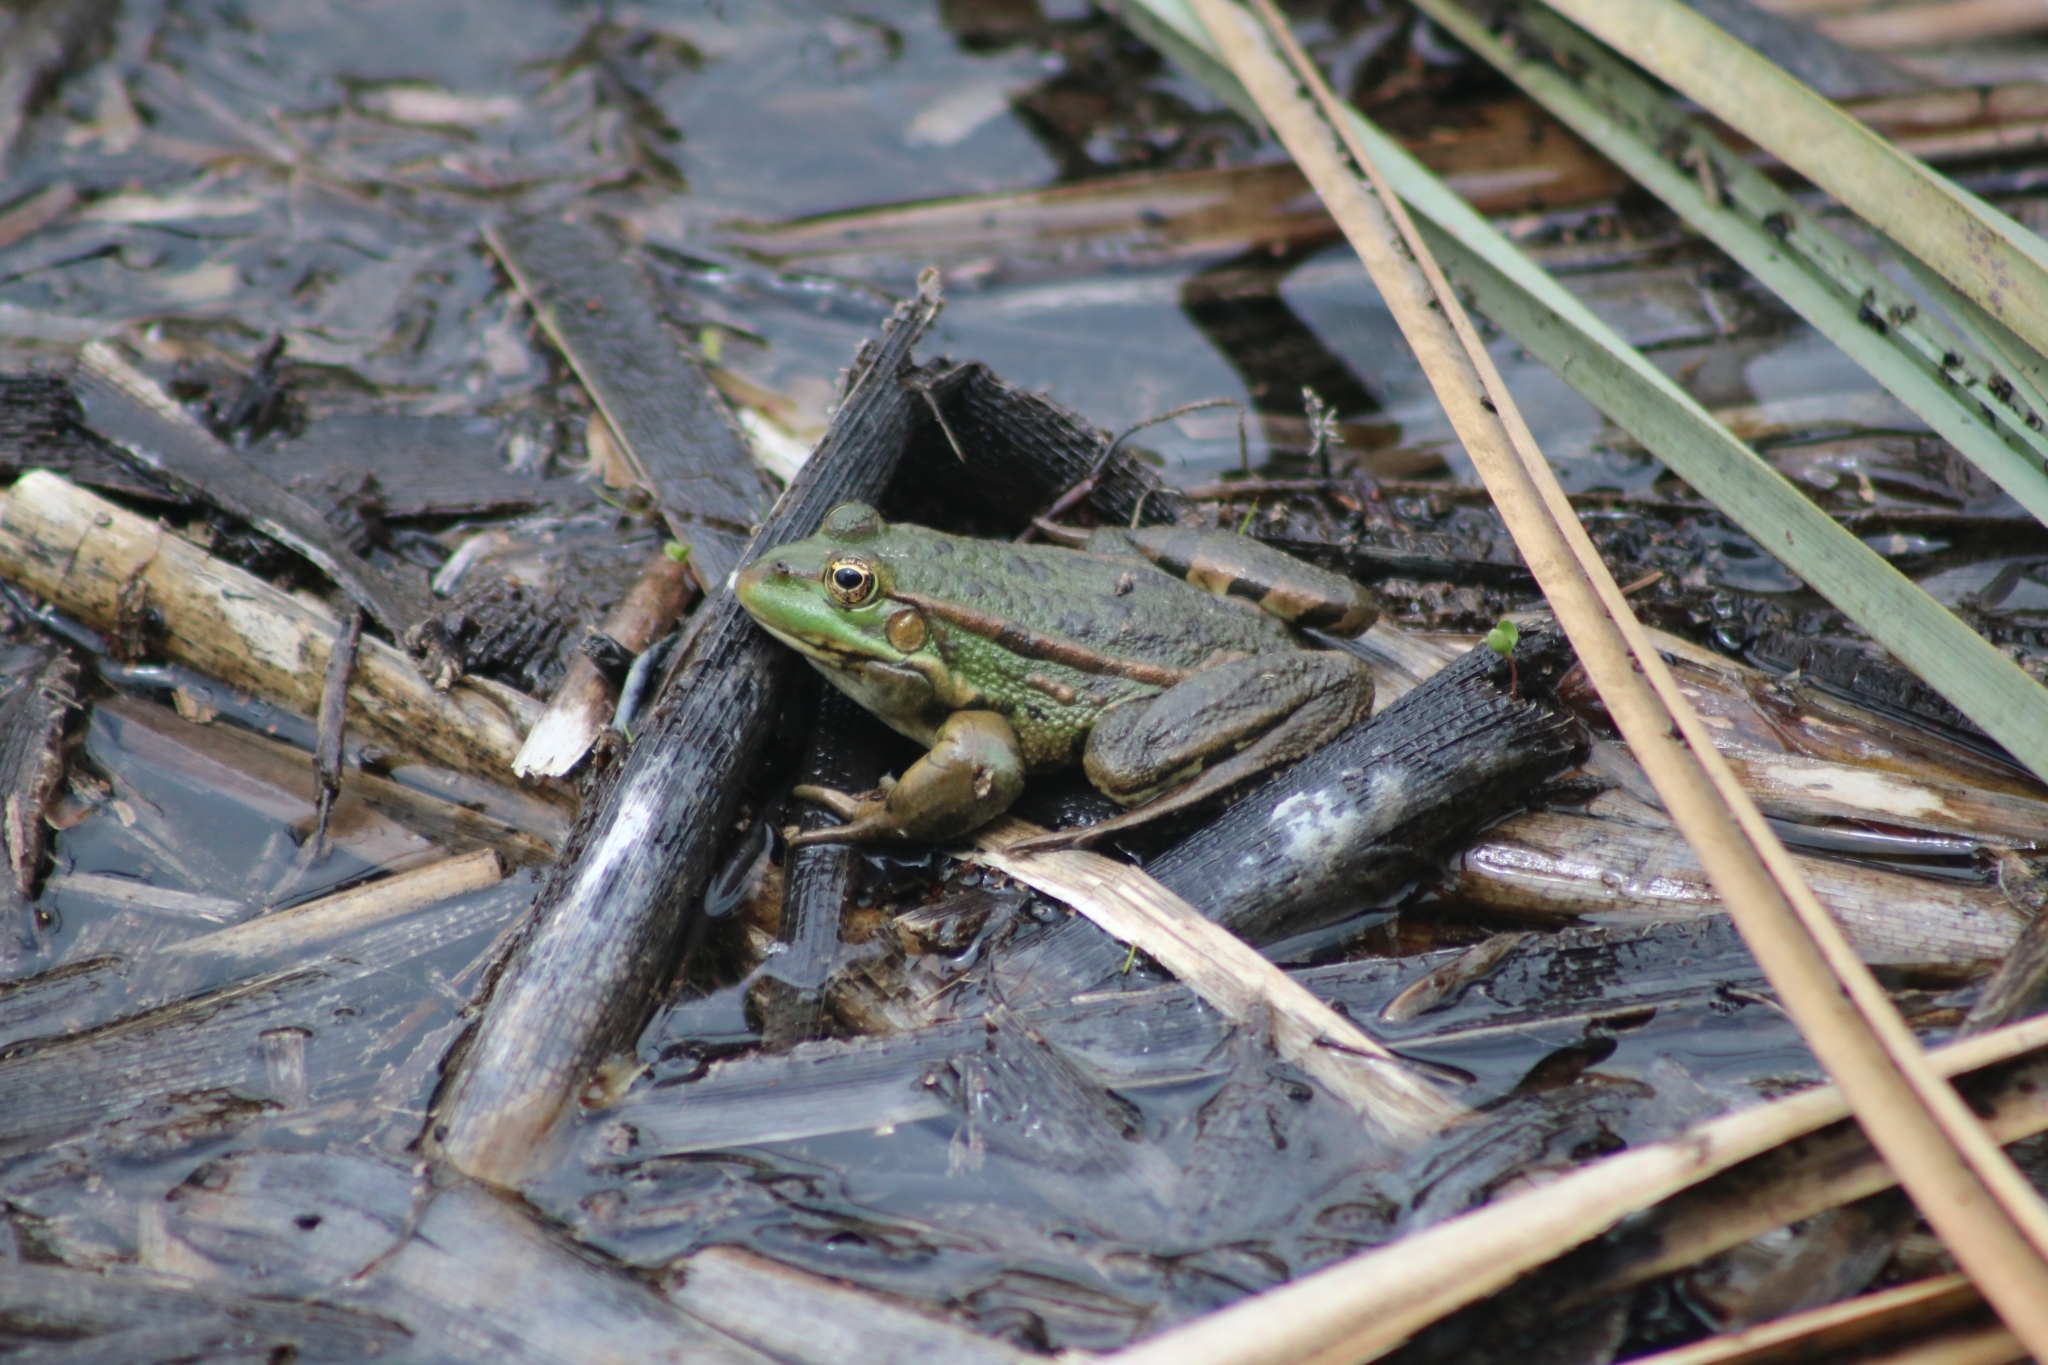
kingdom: Animalia
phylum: Chordata
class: Amphibia
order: Anura
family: Ranidae
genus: Pelophylax
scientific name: Pelophylax ridibundus
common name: Marsh frog
